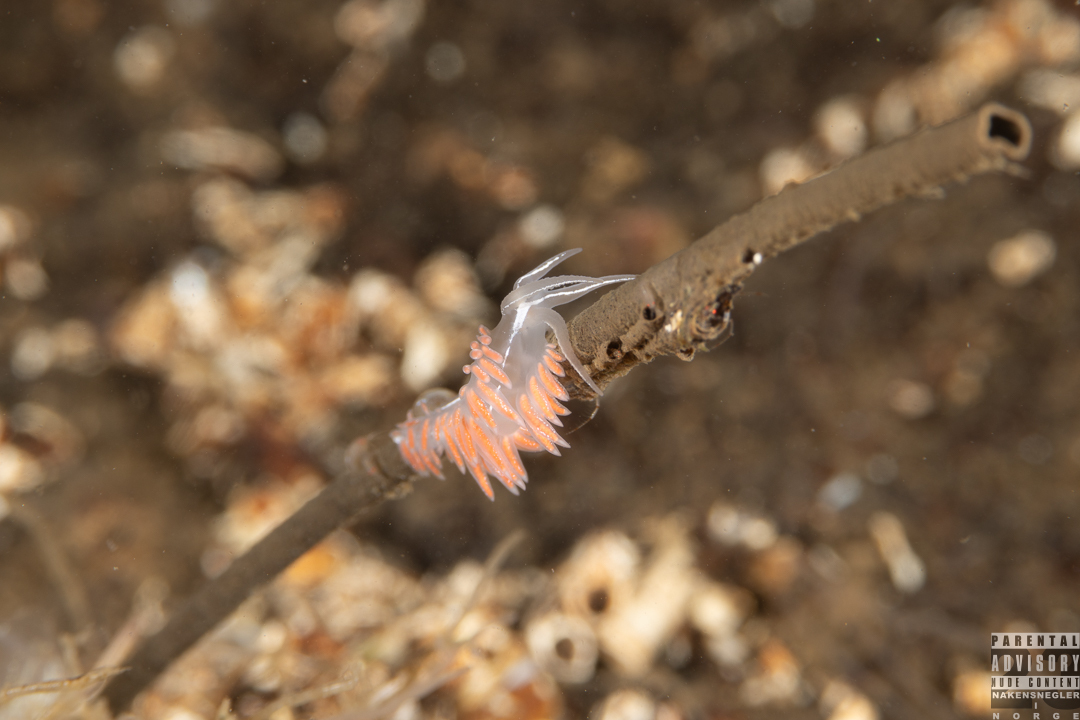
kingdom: Animalia
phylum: Mollusca
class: Gastropoda
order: Nudibranchia
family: Coryphellidae
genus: Coryphella
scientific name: Coryphella chriskaugei
